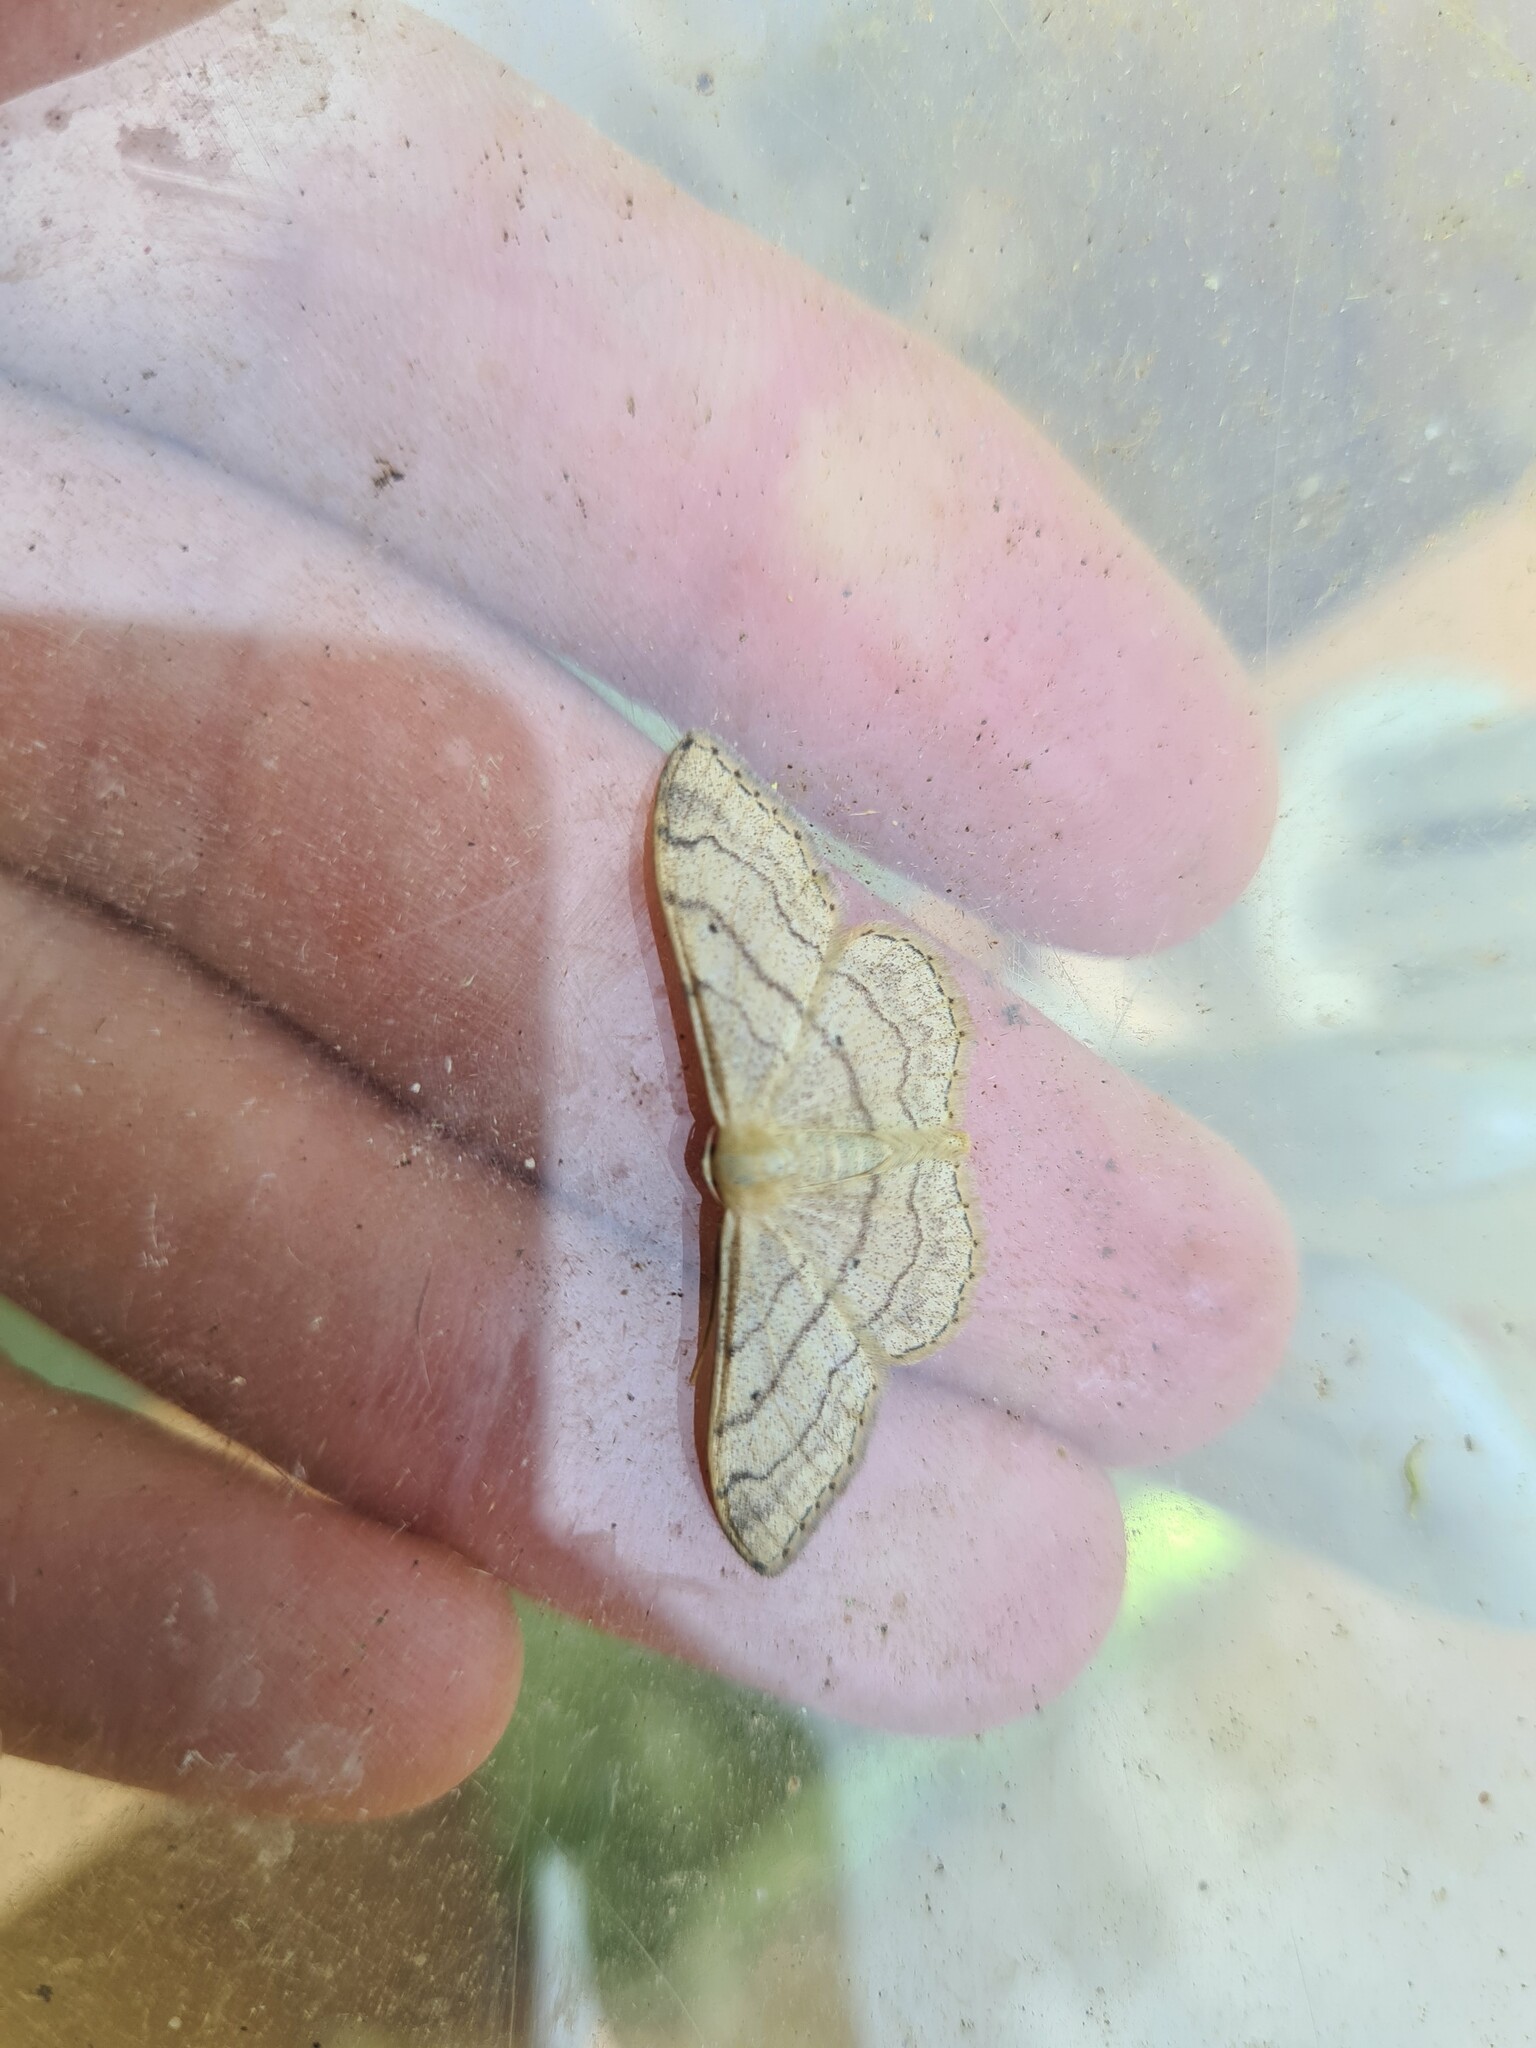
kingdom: Animalia
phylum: Arthropoda
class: Insecta
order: Lepidoptera
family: Geometridae
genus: Idaea
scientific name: Idaea aversata
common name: Riband wave
